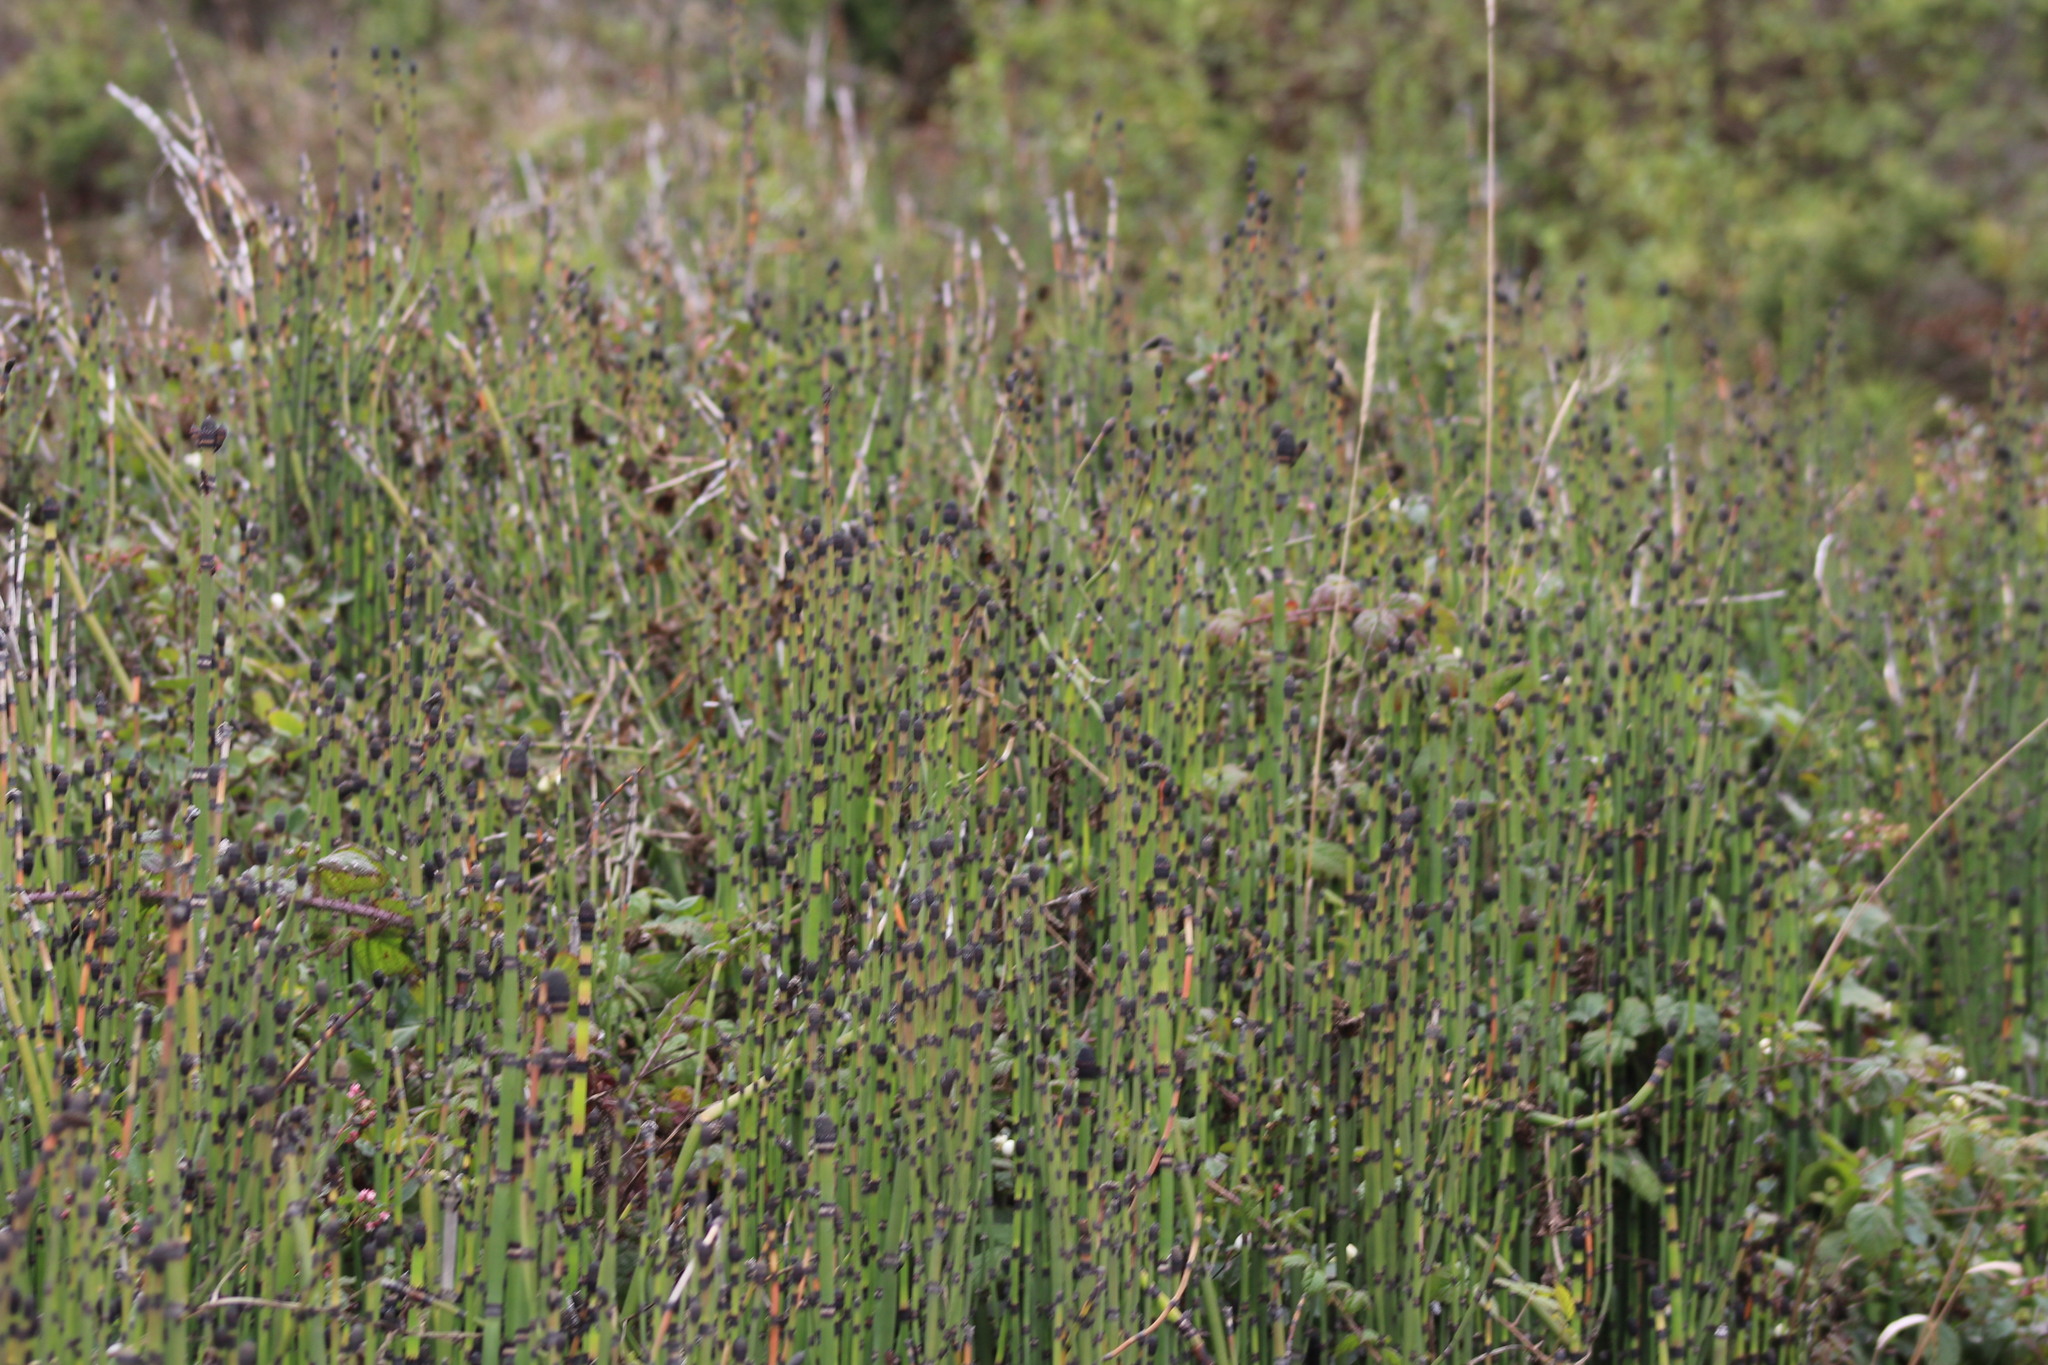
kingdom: Plantae
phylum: Tracheophyta
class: Polypodiopsida
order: Equisetales
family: Equisetaceae
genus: Equisetum
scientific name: Equisetum praealtum
